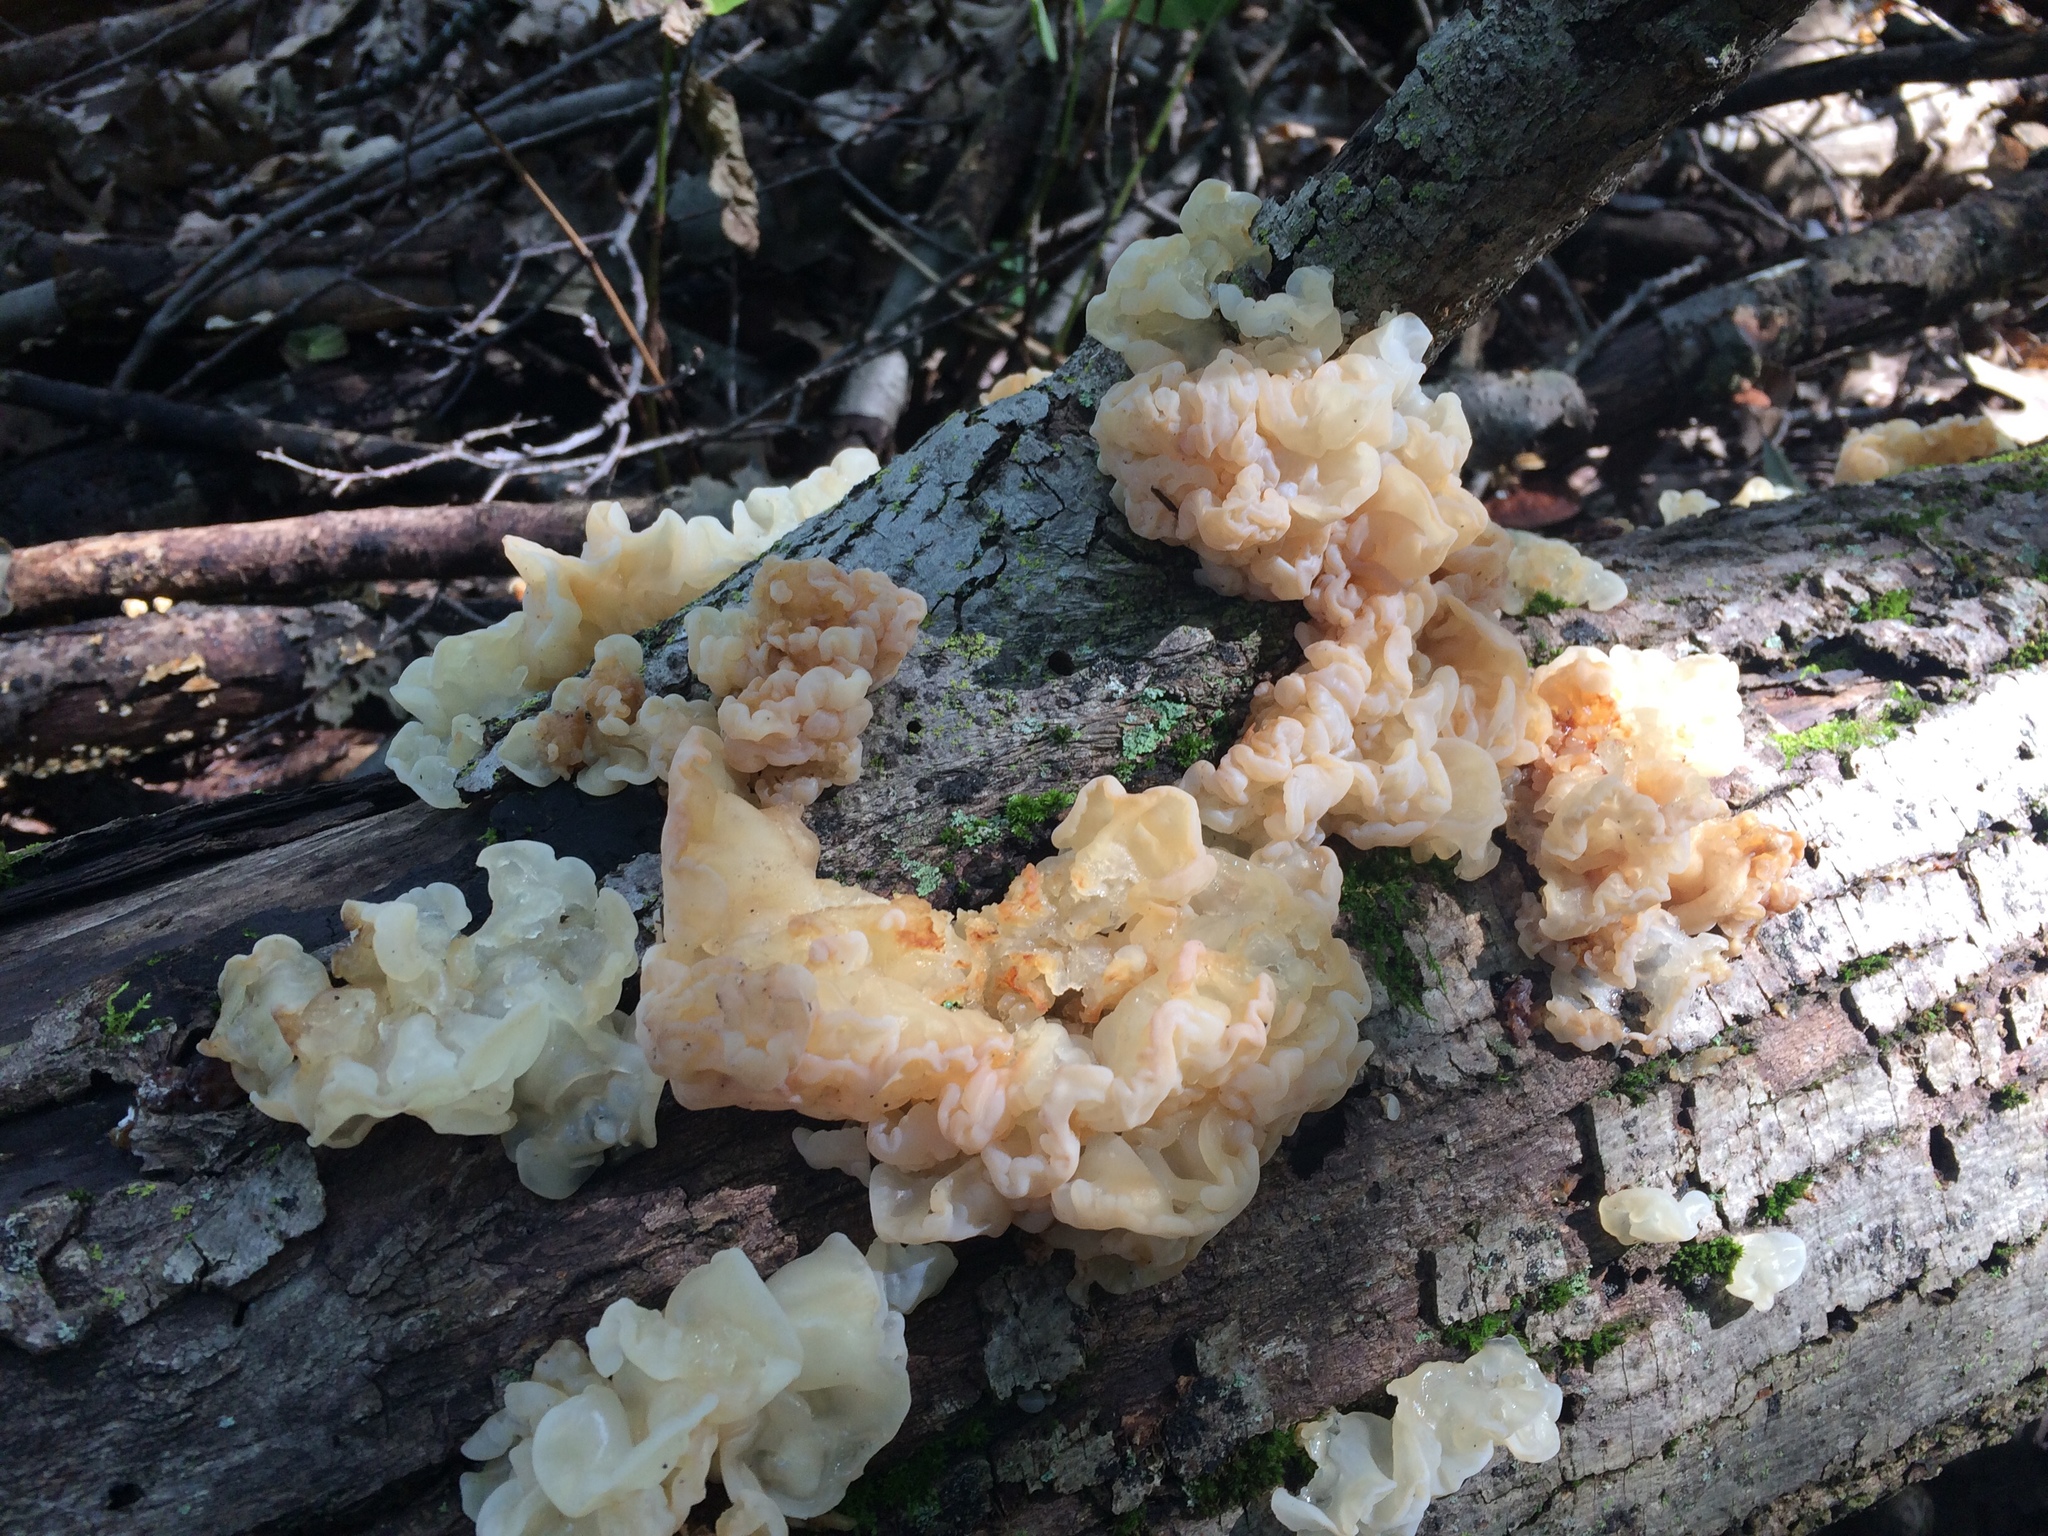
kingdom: Fungi
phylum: Basidiomycota
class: Agaricomycetes
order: Auriculariales
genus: Ductifera
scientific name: Ductifera pululahuana
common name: White jelly fungus
